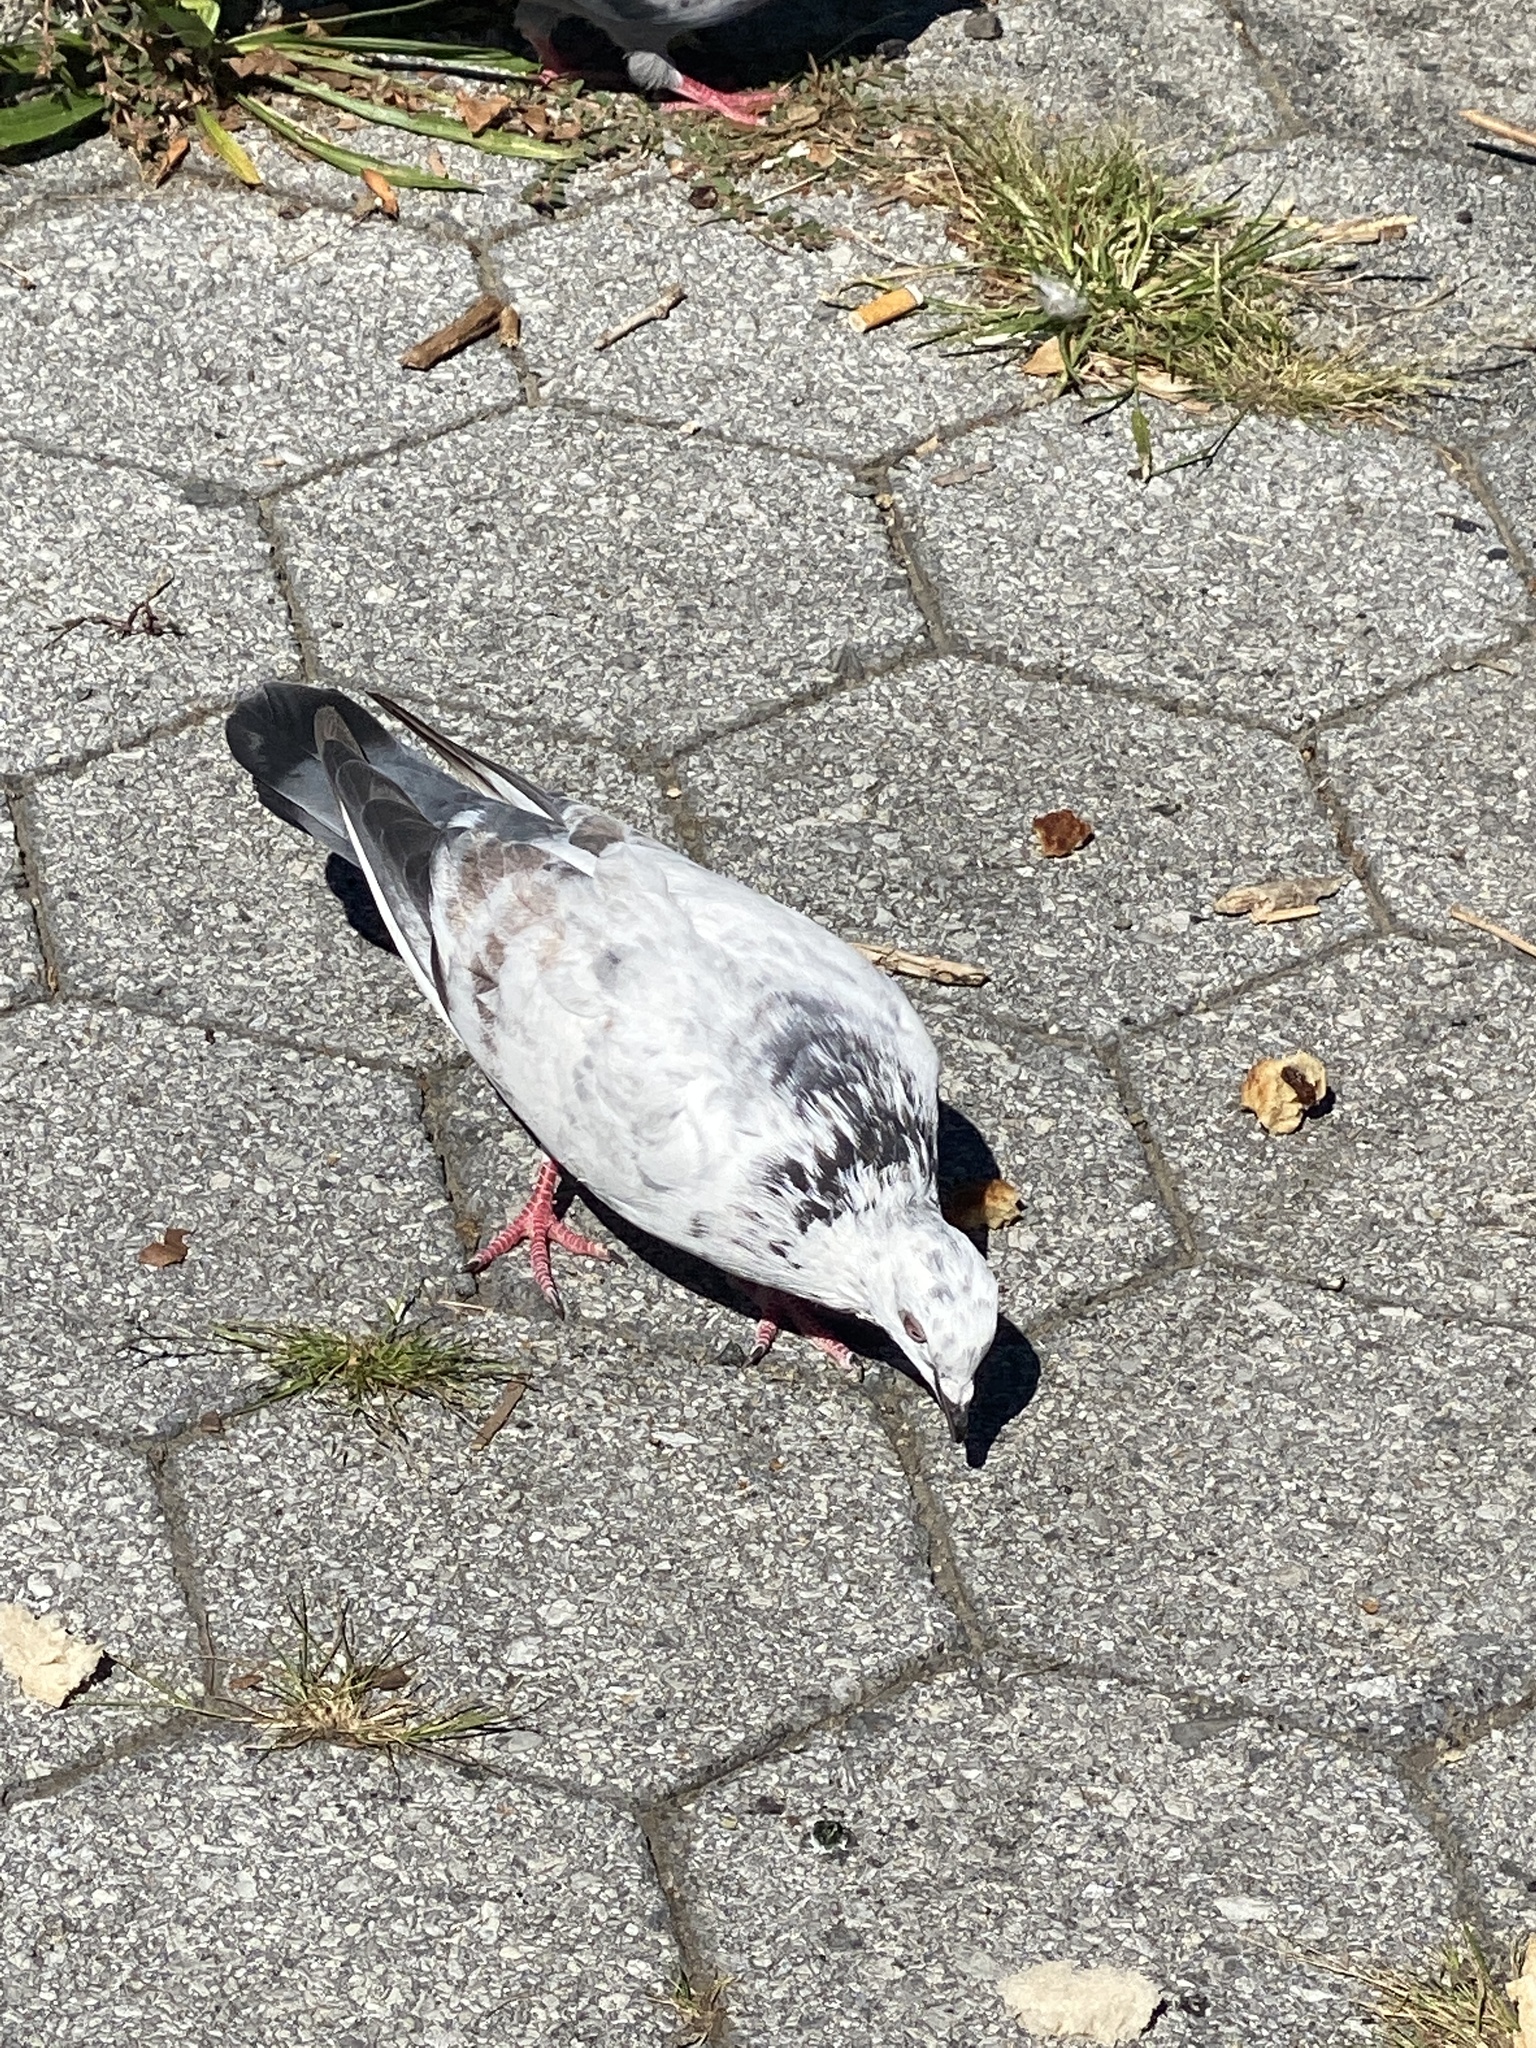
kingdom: Animalia
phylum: Chordata
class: Aves
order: Columbiformes
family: Columbidae
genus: Columba
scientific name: Columba livia
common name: Rock pigeon
